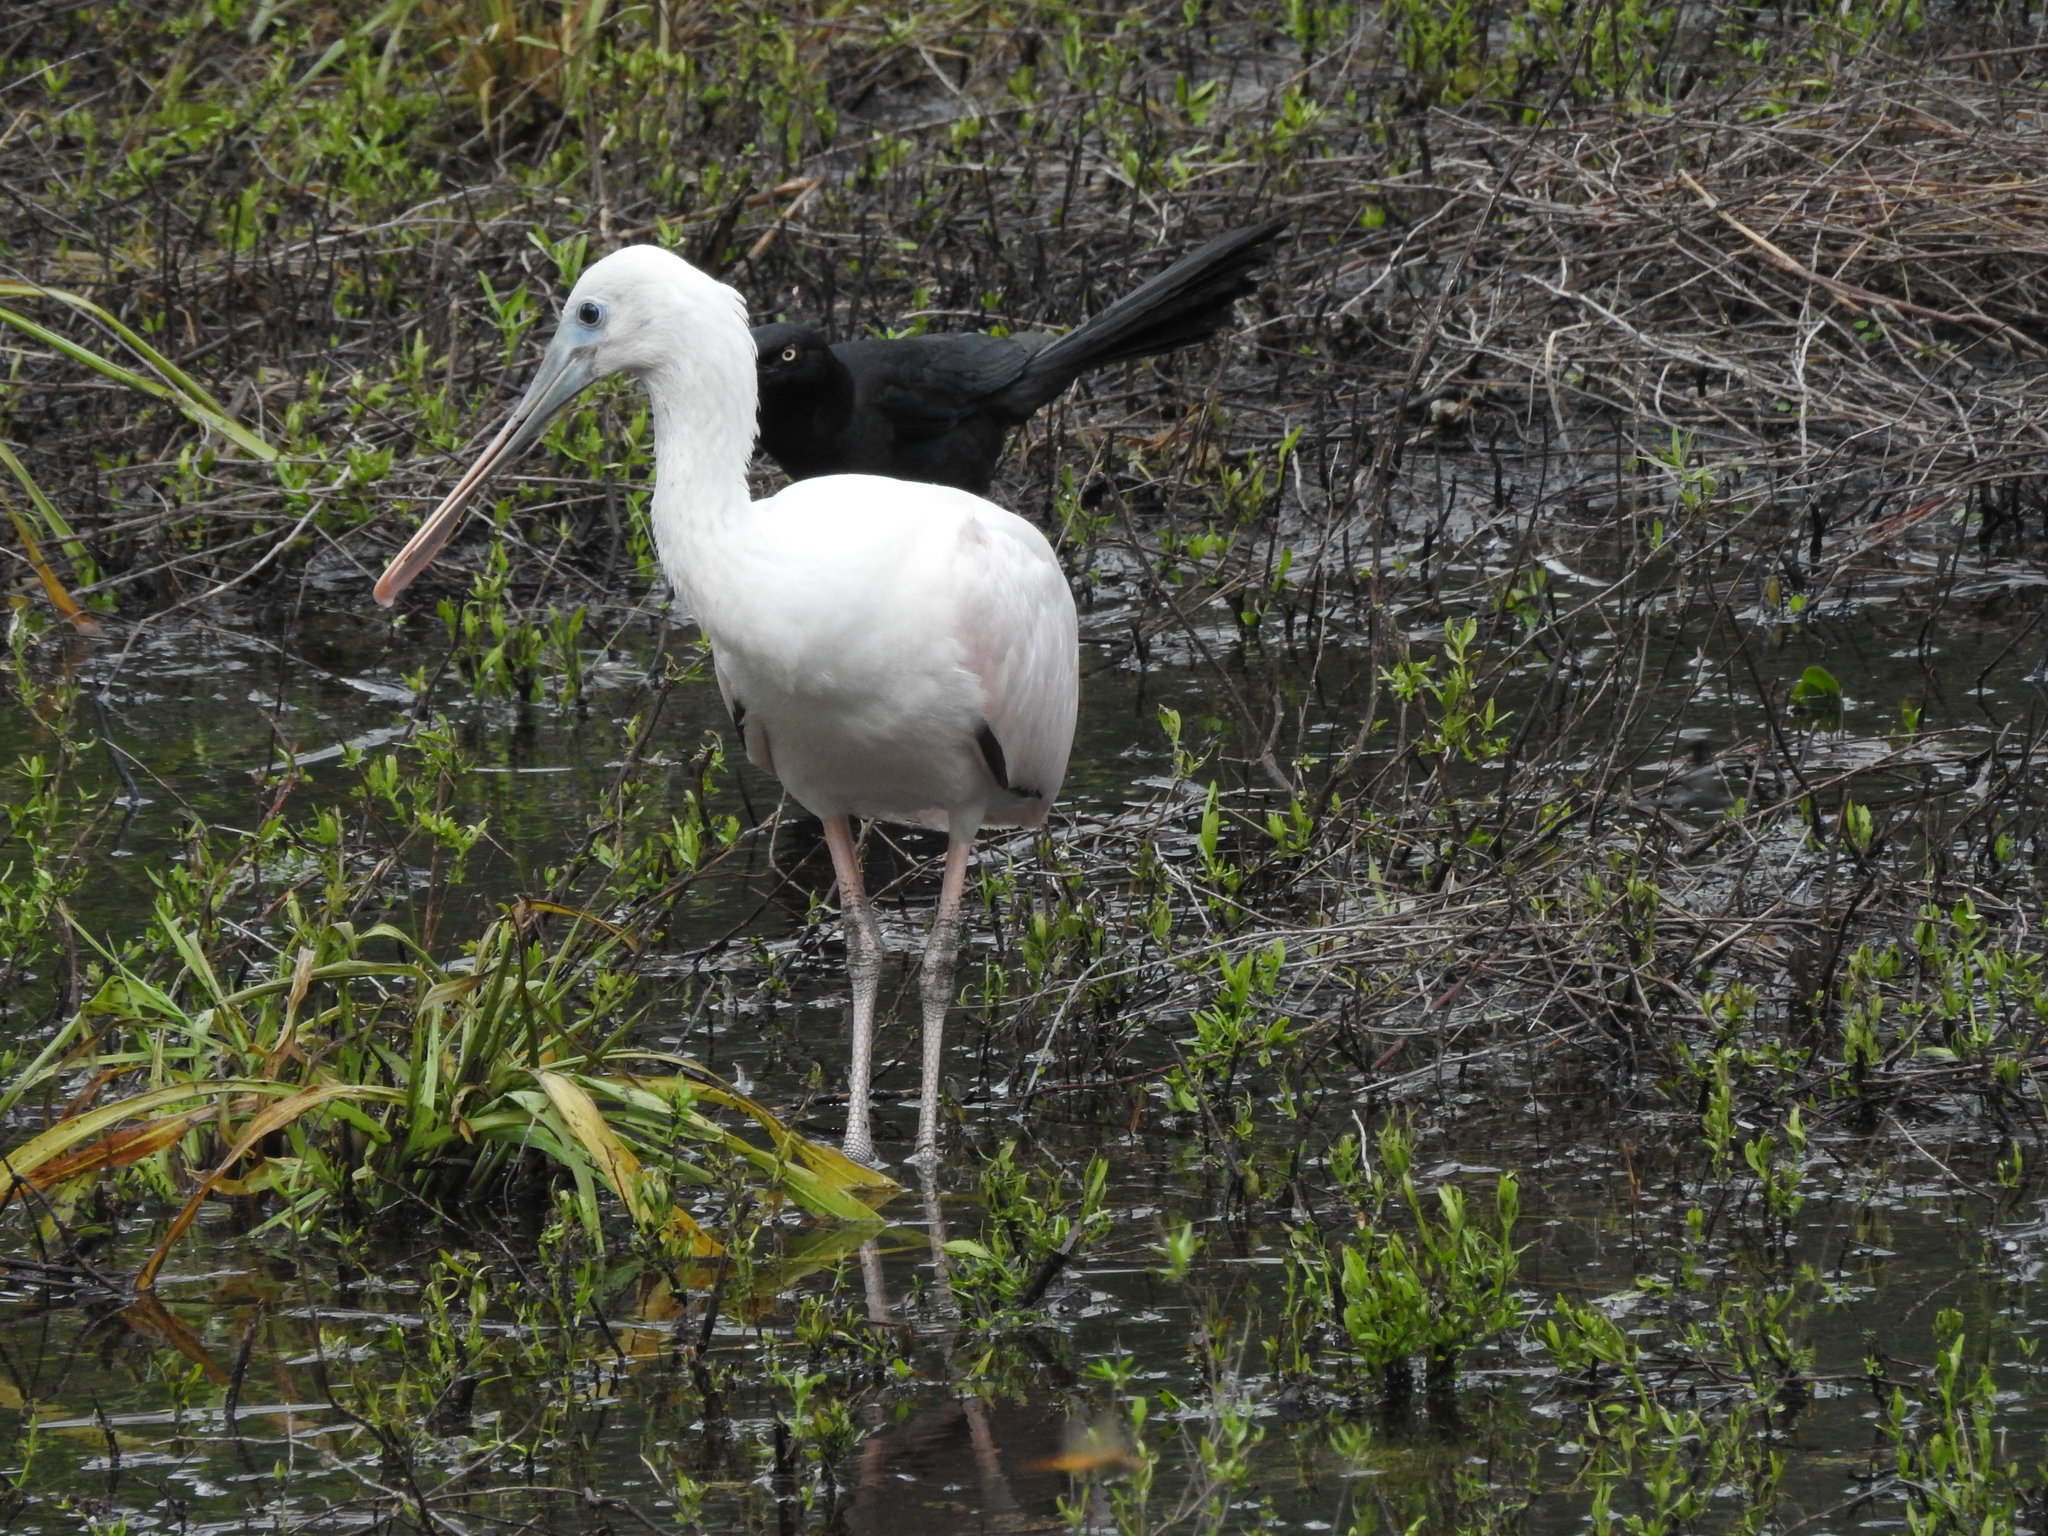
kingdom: Animalia
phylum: Chordata
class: Aves
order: Pelecaniformes
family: Threskiornithidae
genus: Platalea
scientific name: Platalea ajaja
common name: Roseate spoonbill
